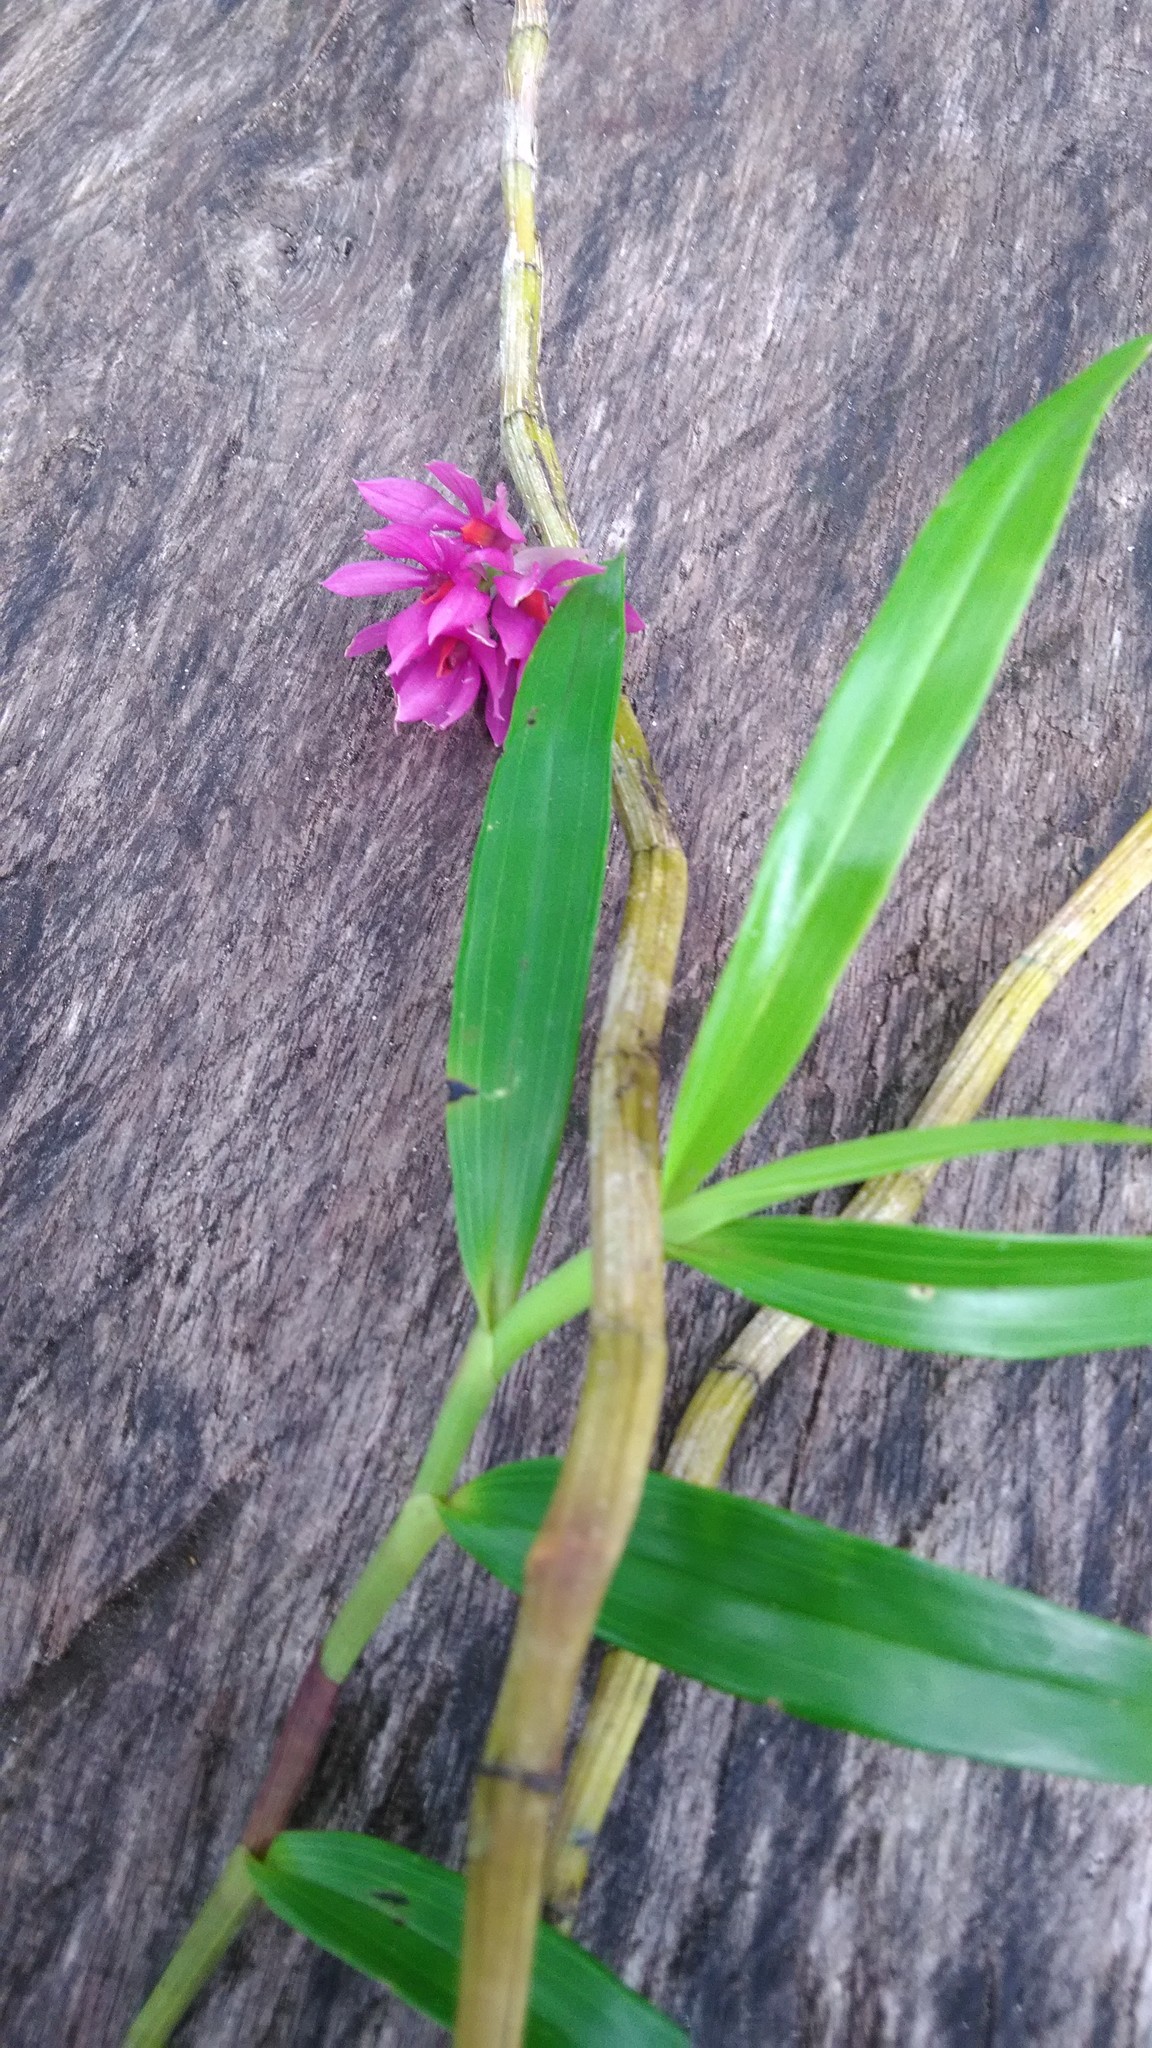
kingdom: Plantae
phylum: Tracheophyta
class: Liliopsida
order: Asparagales
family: Orchidaceae
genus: Dendrobium
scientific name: Dendrobium bracteosum
